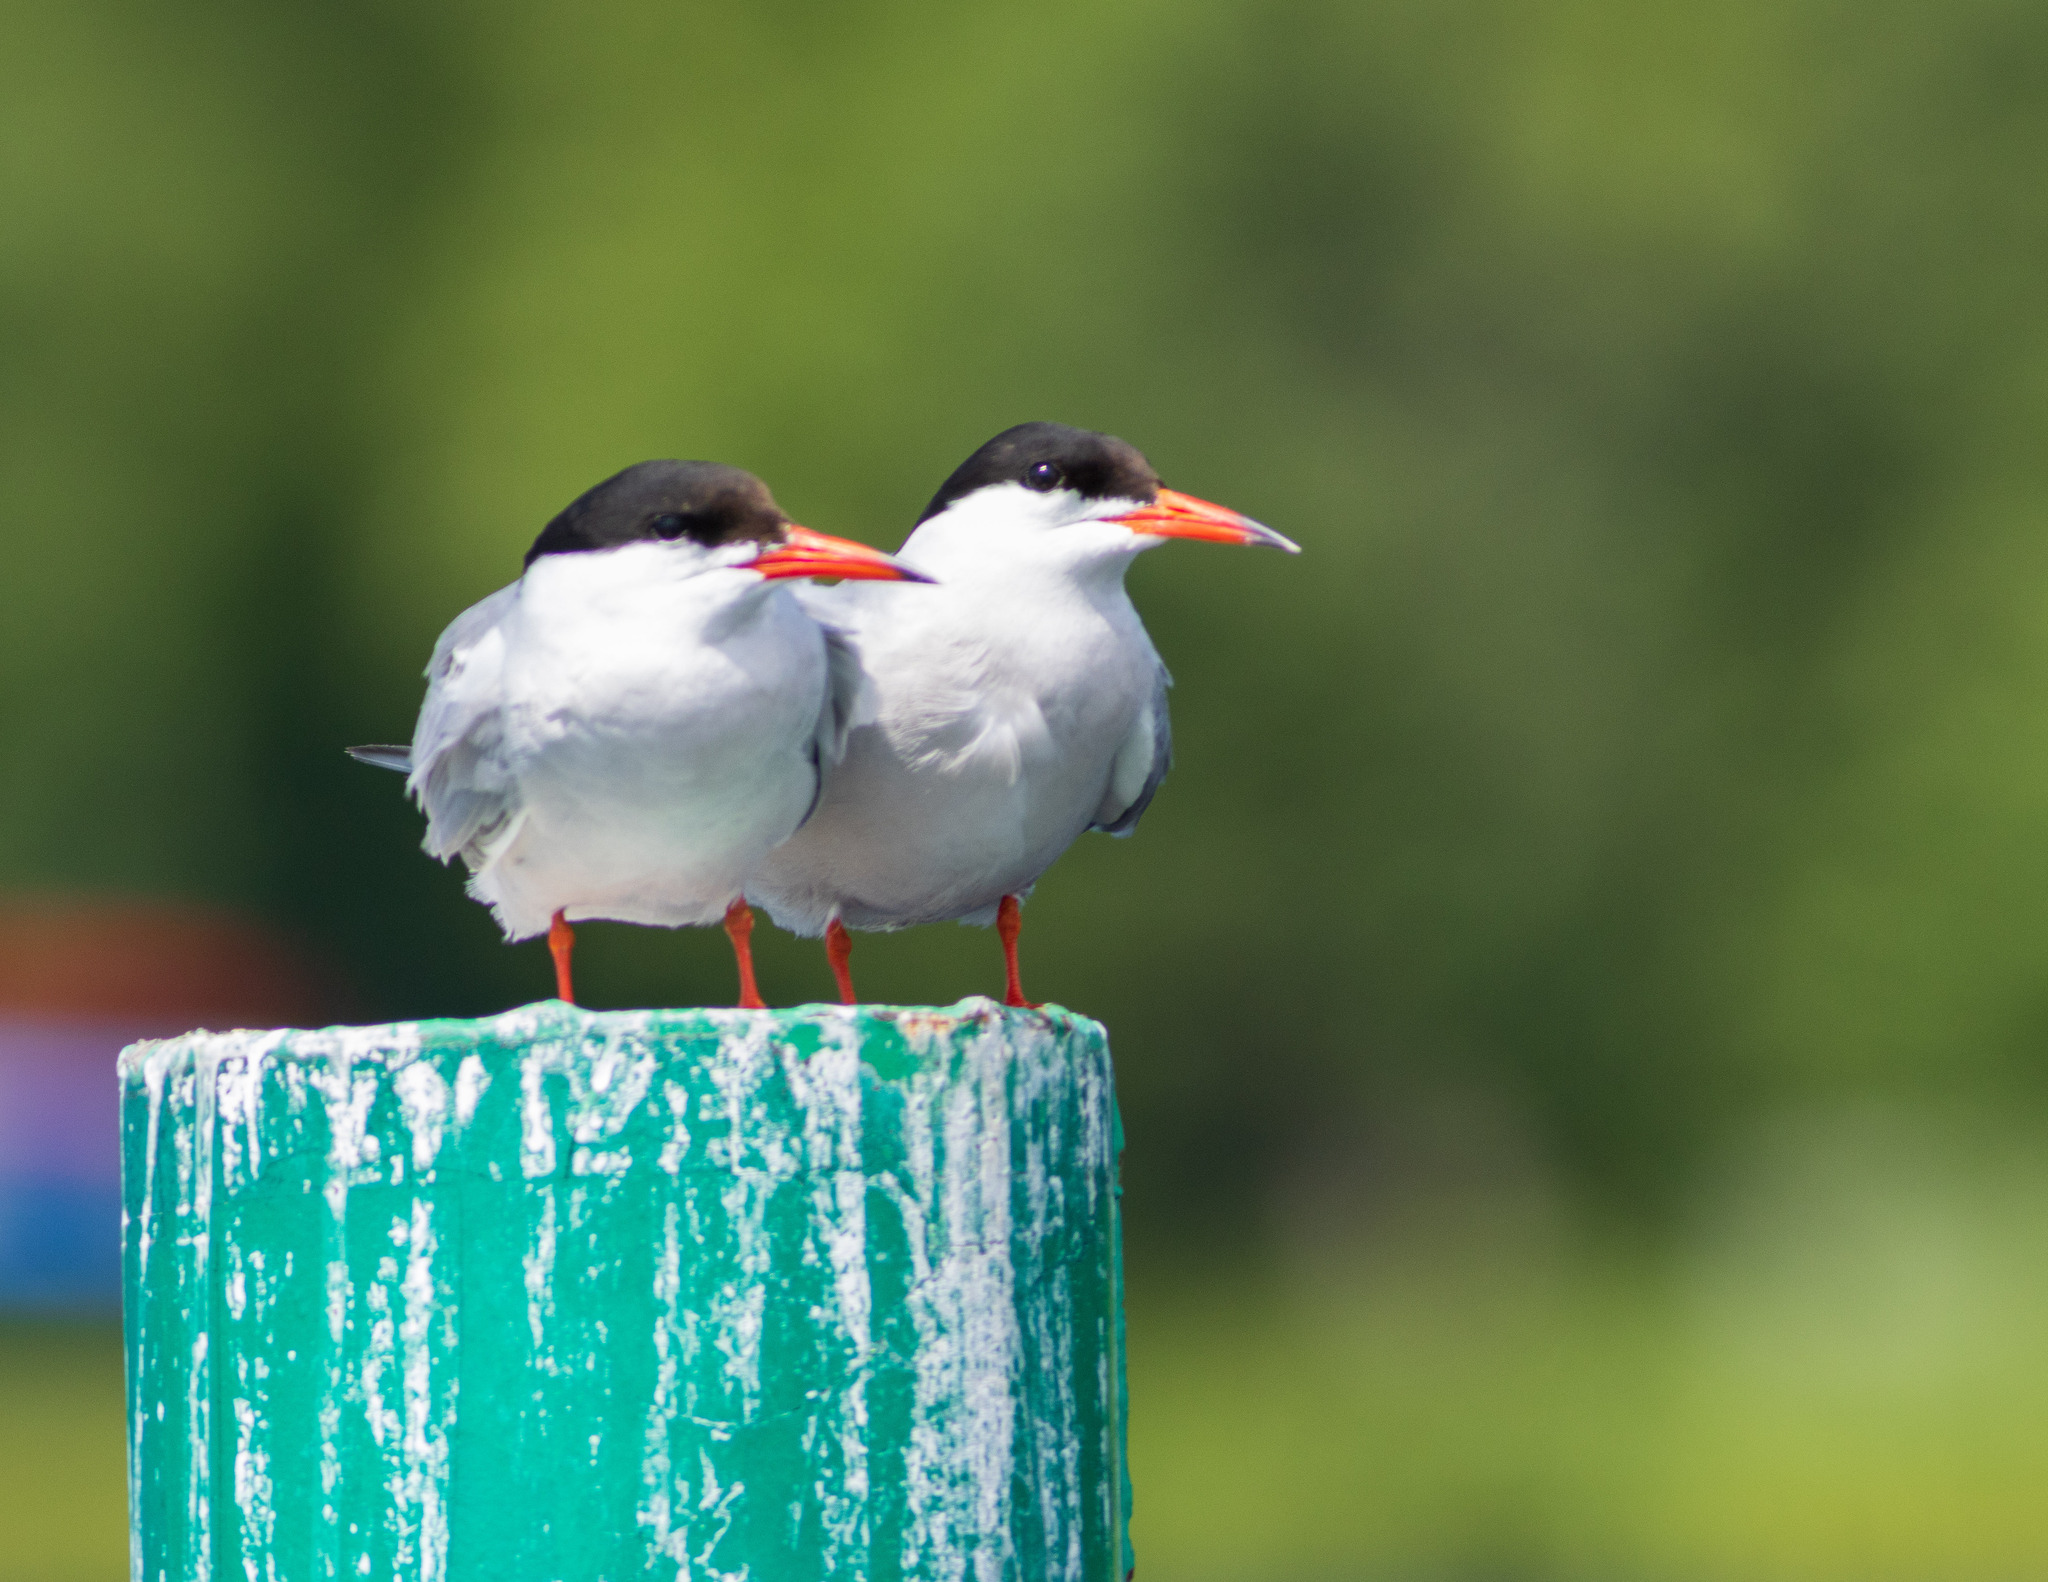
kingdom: Animalia
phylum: Chordata
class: Aves
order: Charadriiformes
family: Laridae
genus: Sterna
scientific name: Sterna hirundo
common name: Common tern
